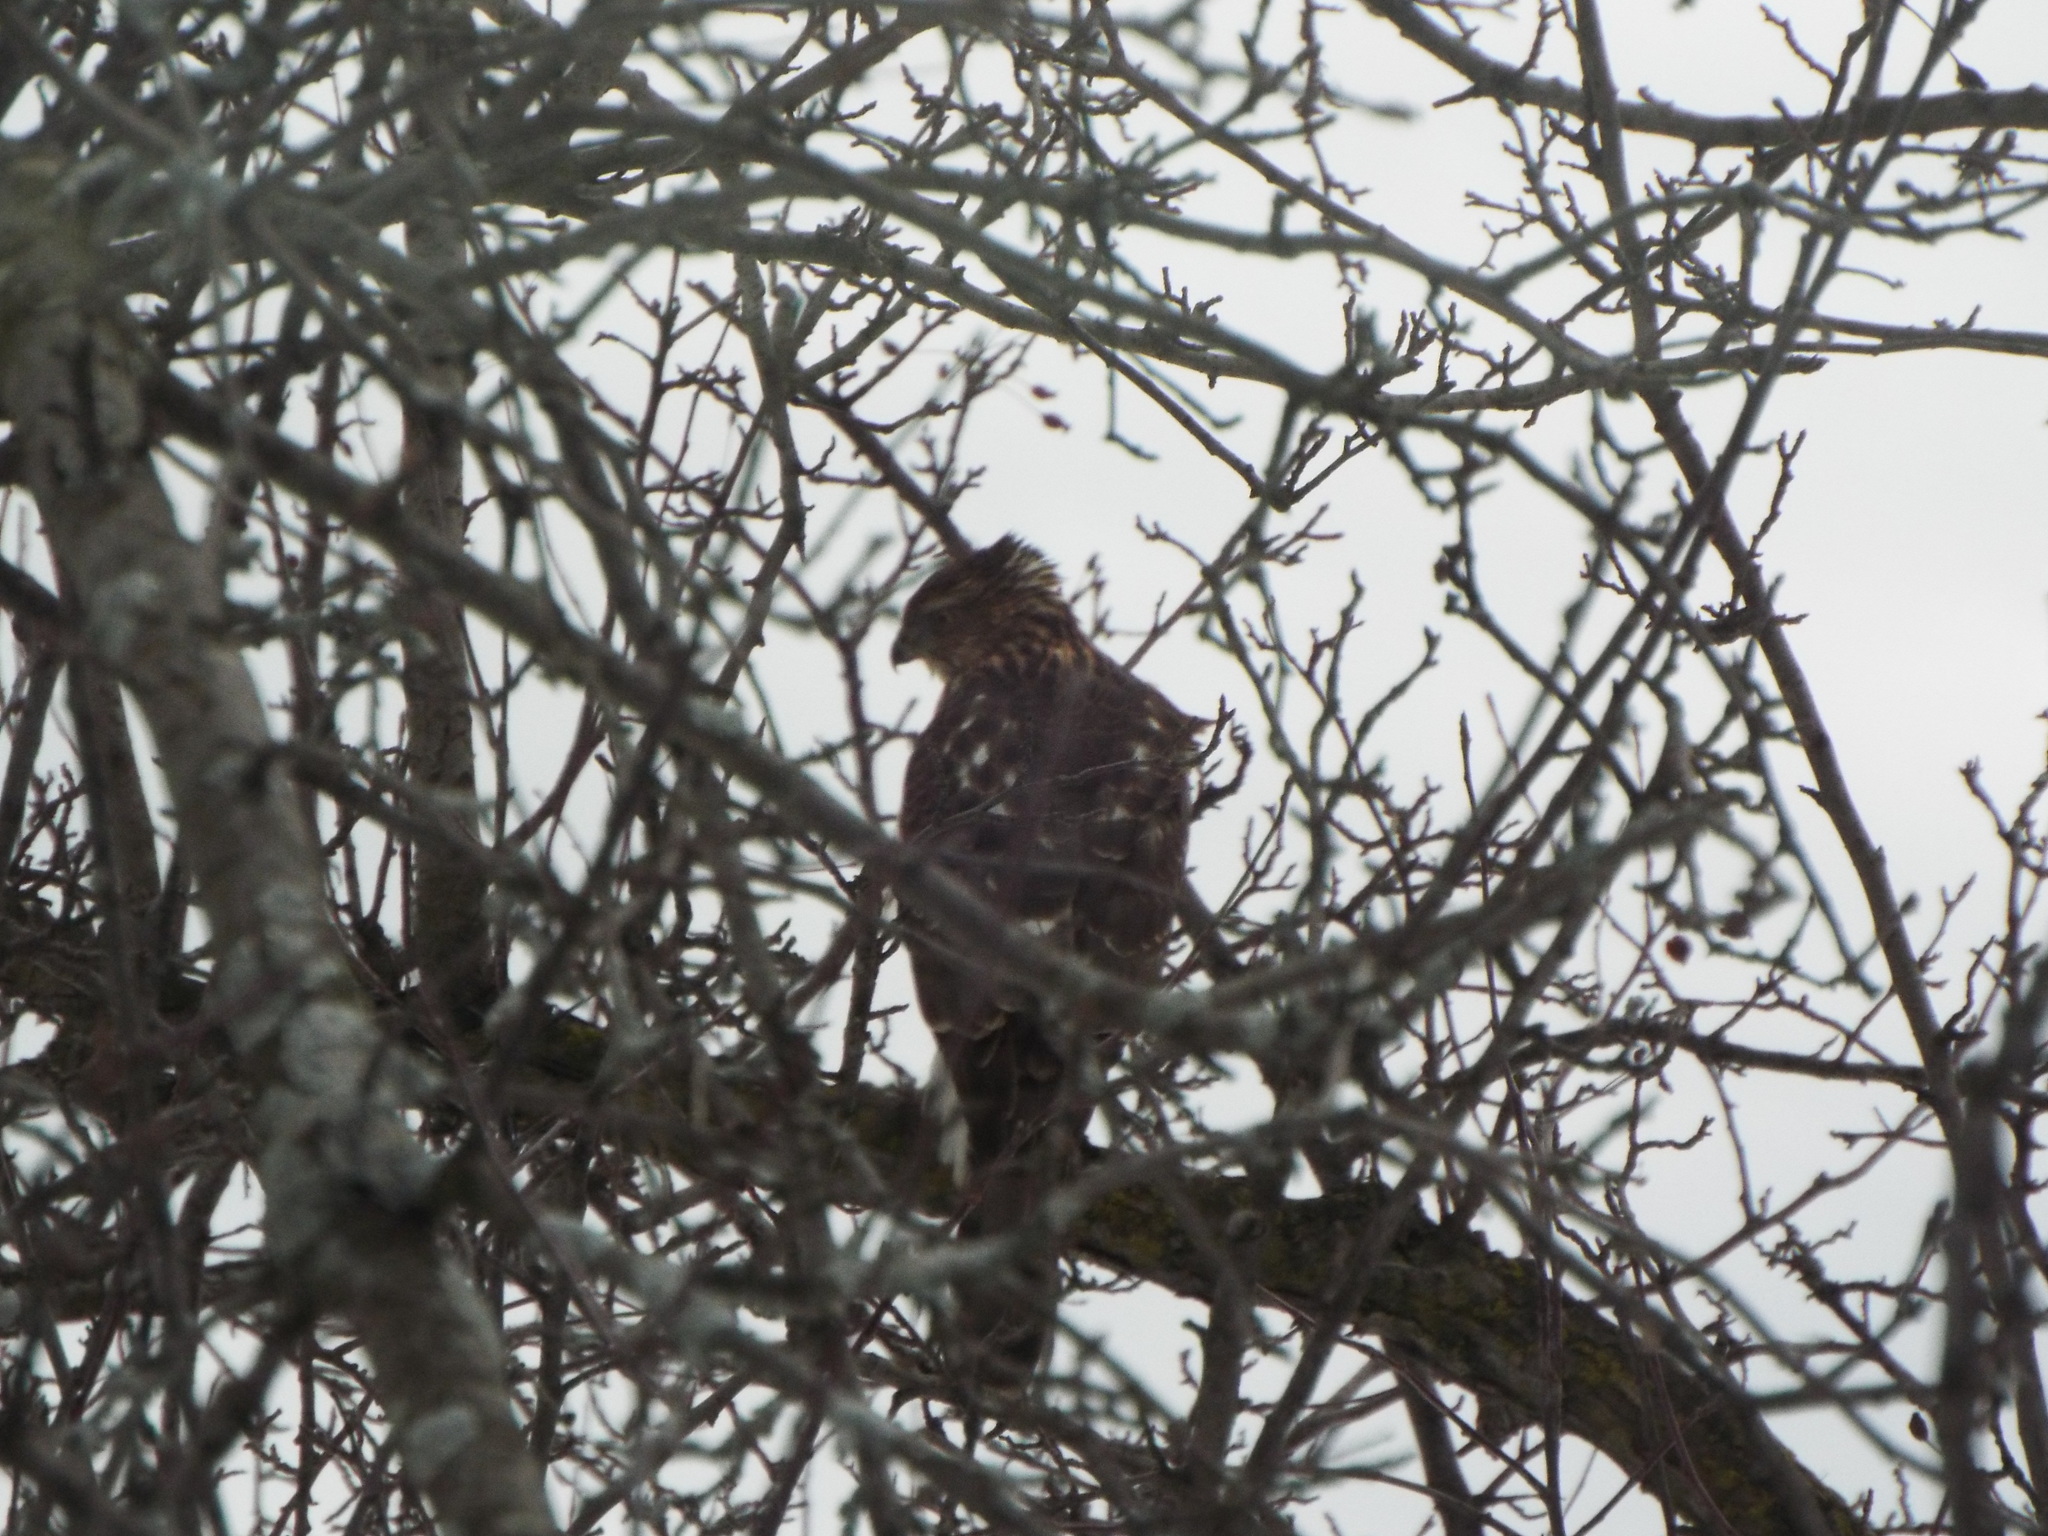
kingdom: Animalia
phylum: Chordata
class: Aves
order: Accipitriformes
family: Accipitridae
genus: Accipiter
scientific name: Accipiter cooperii
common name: Cooper's hawk
